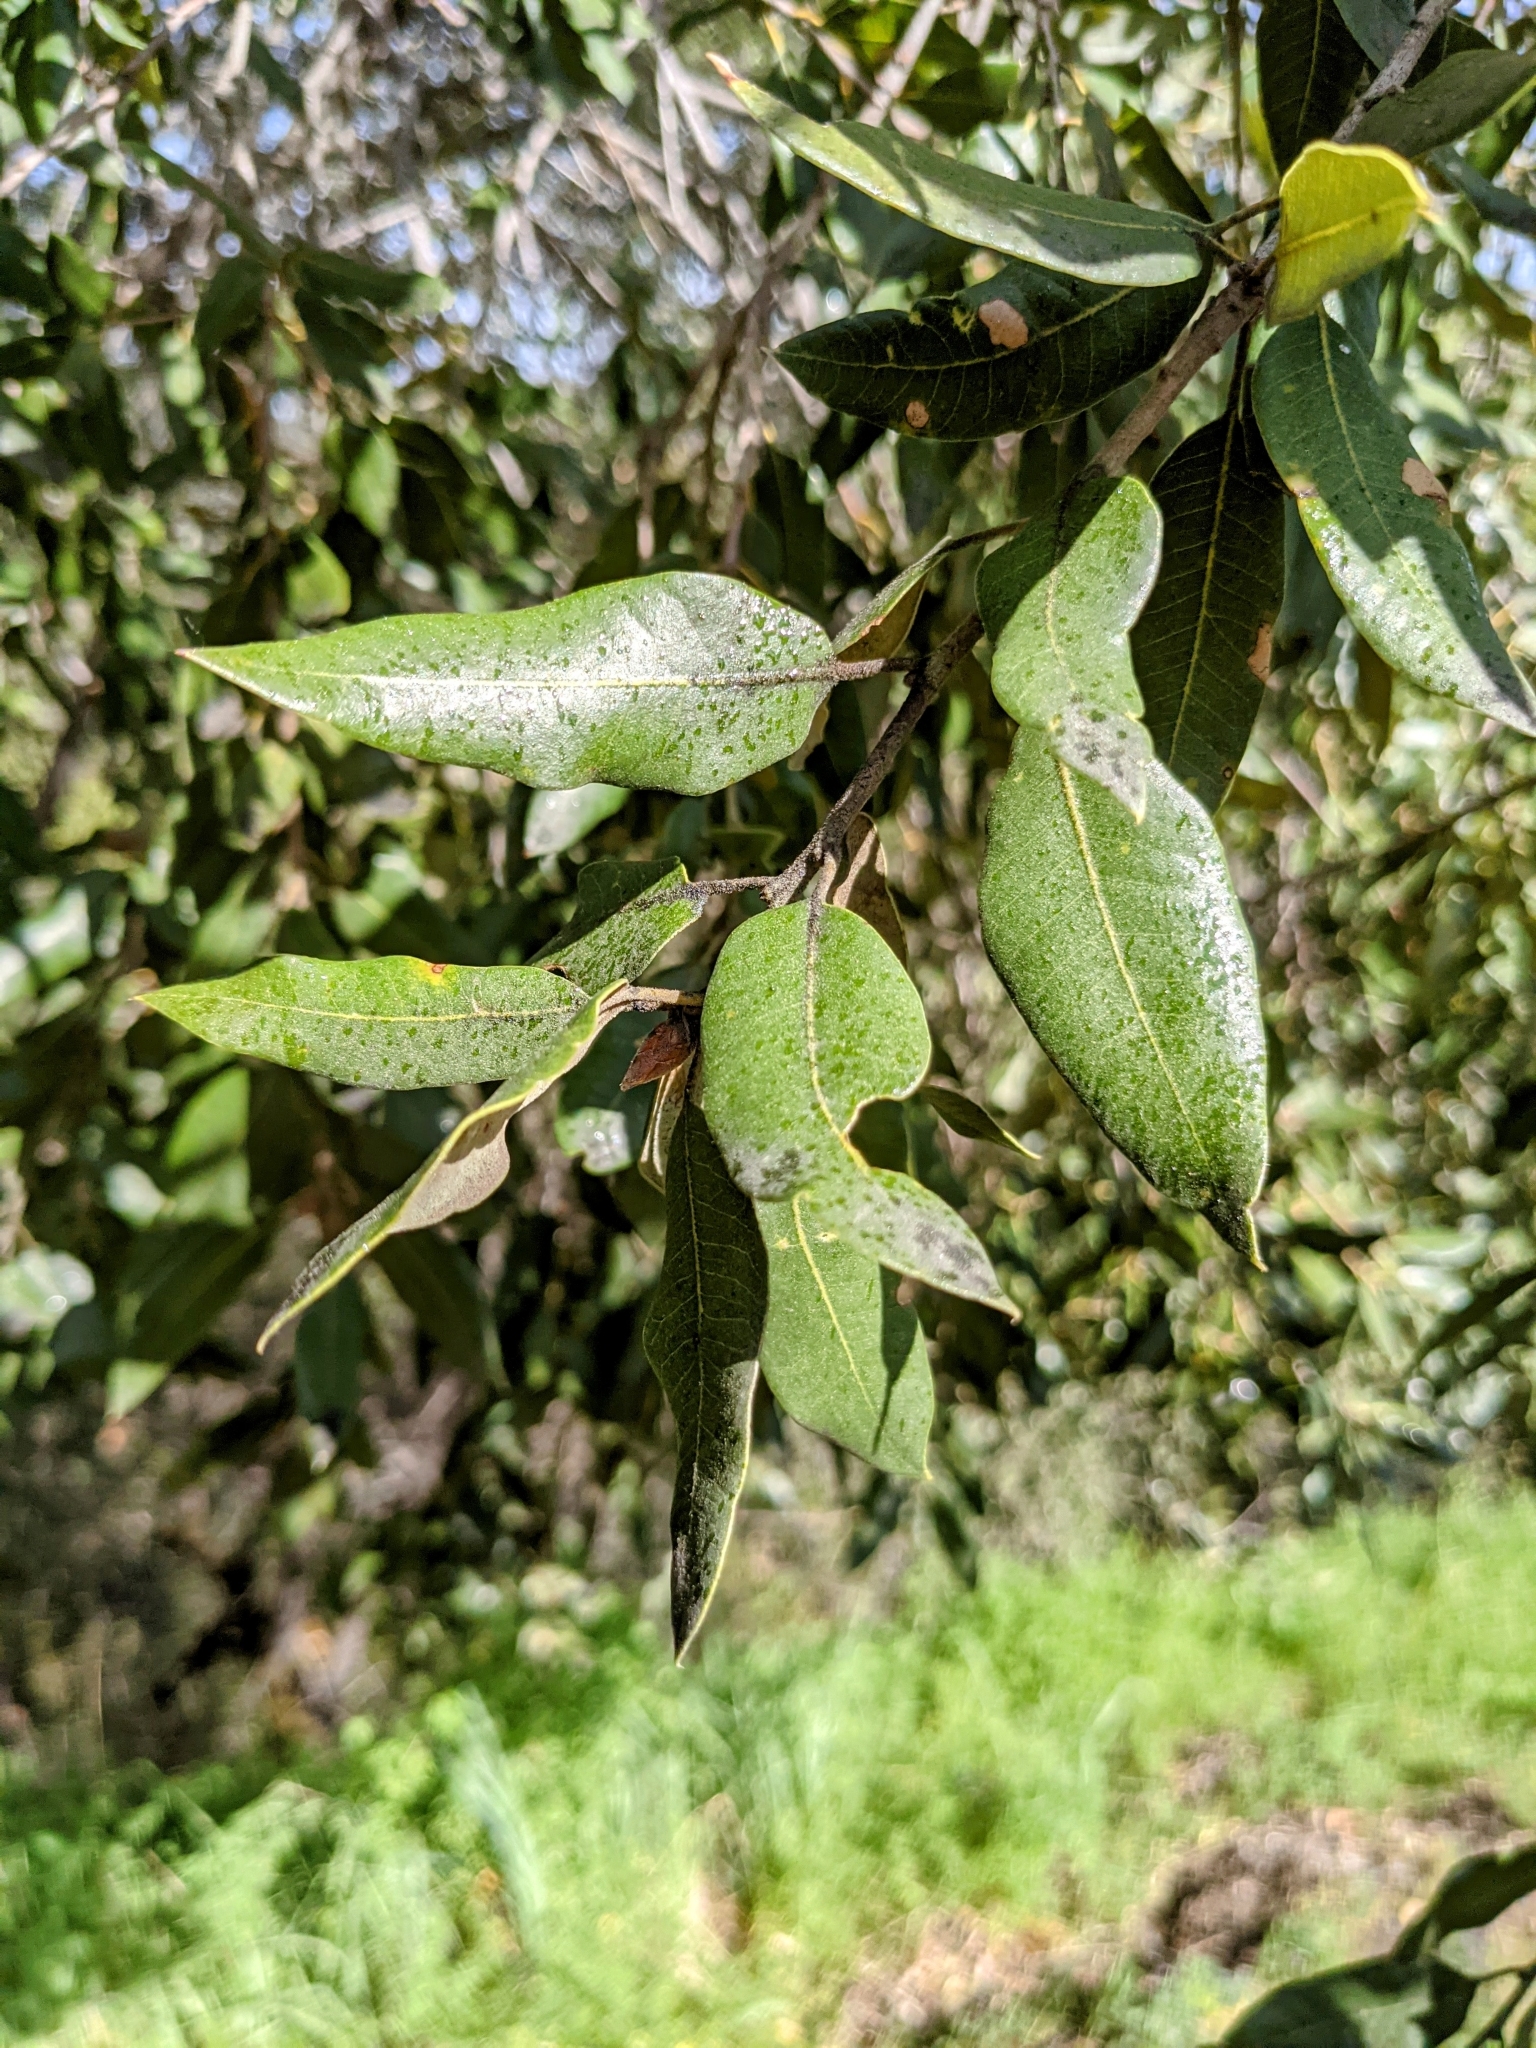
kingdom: Plantae
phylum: Tracheophyta
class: Magnoliopsida
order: Fagales
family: Fagaceae
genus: Quercus
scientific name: Quercus chrysolepis
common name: Canyon live oak
